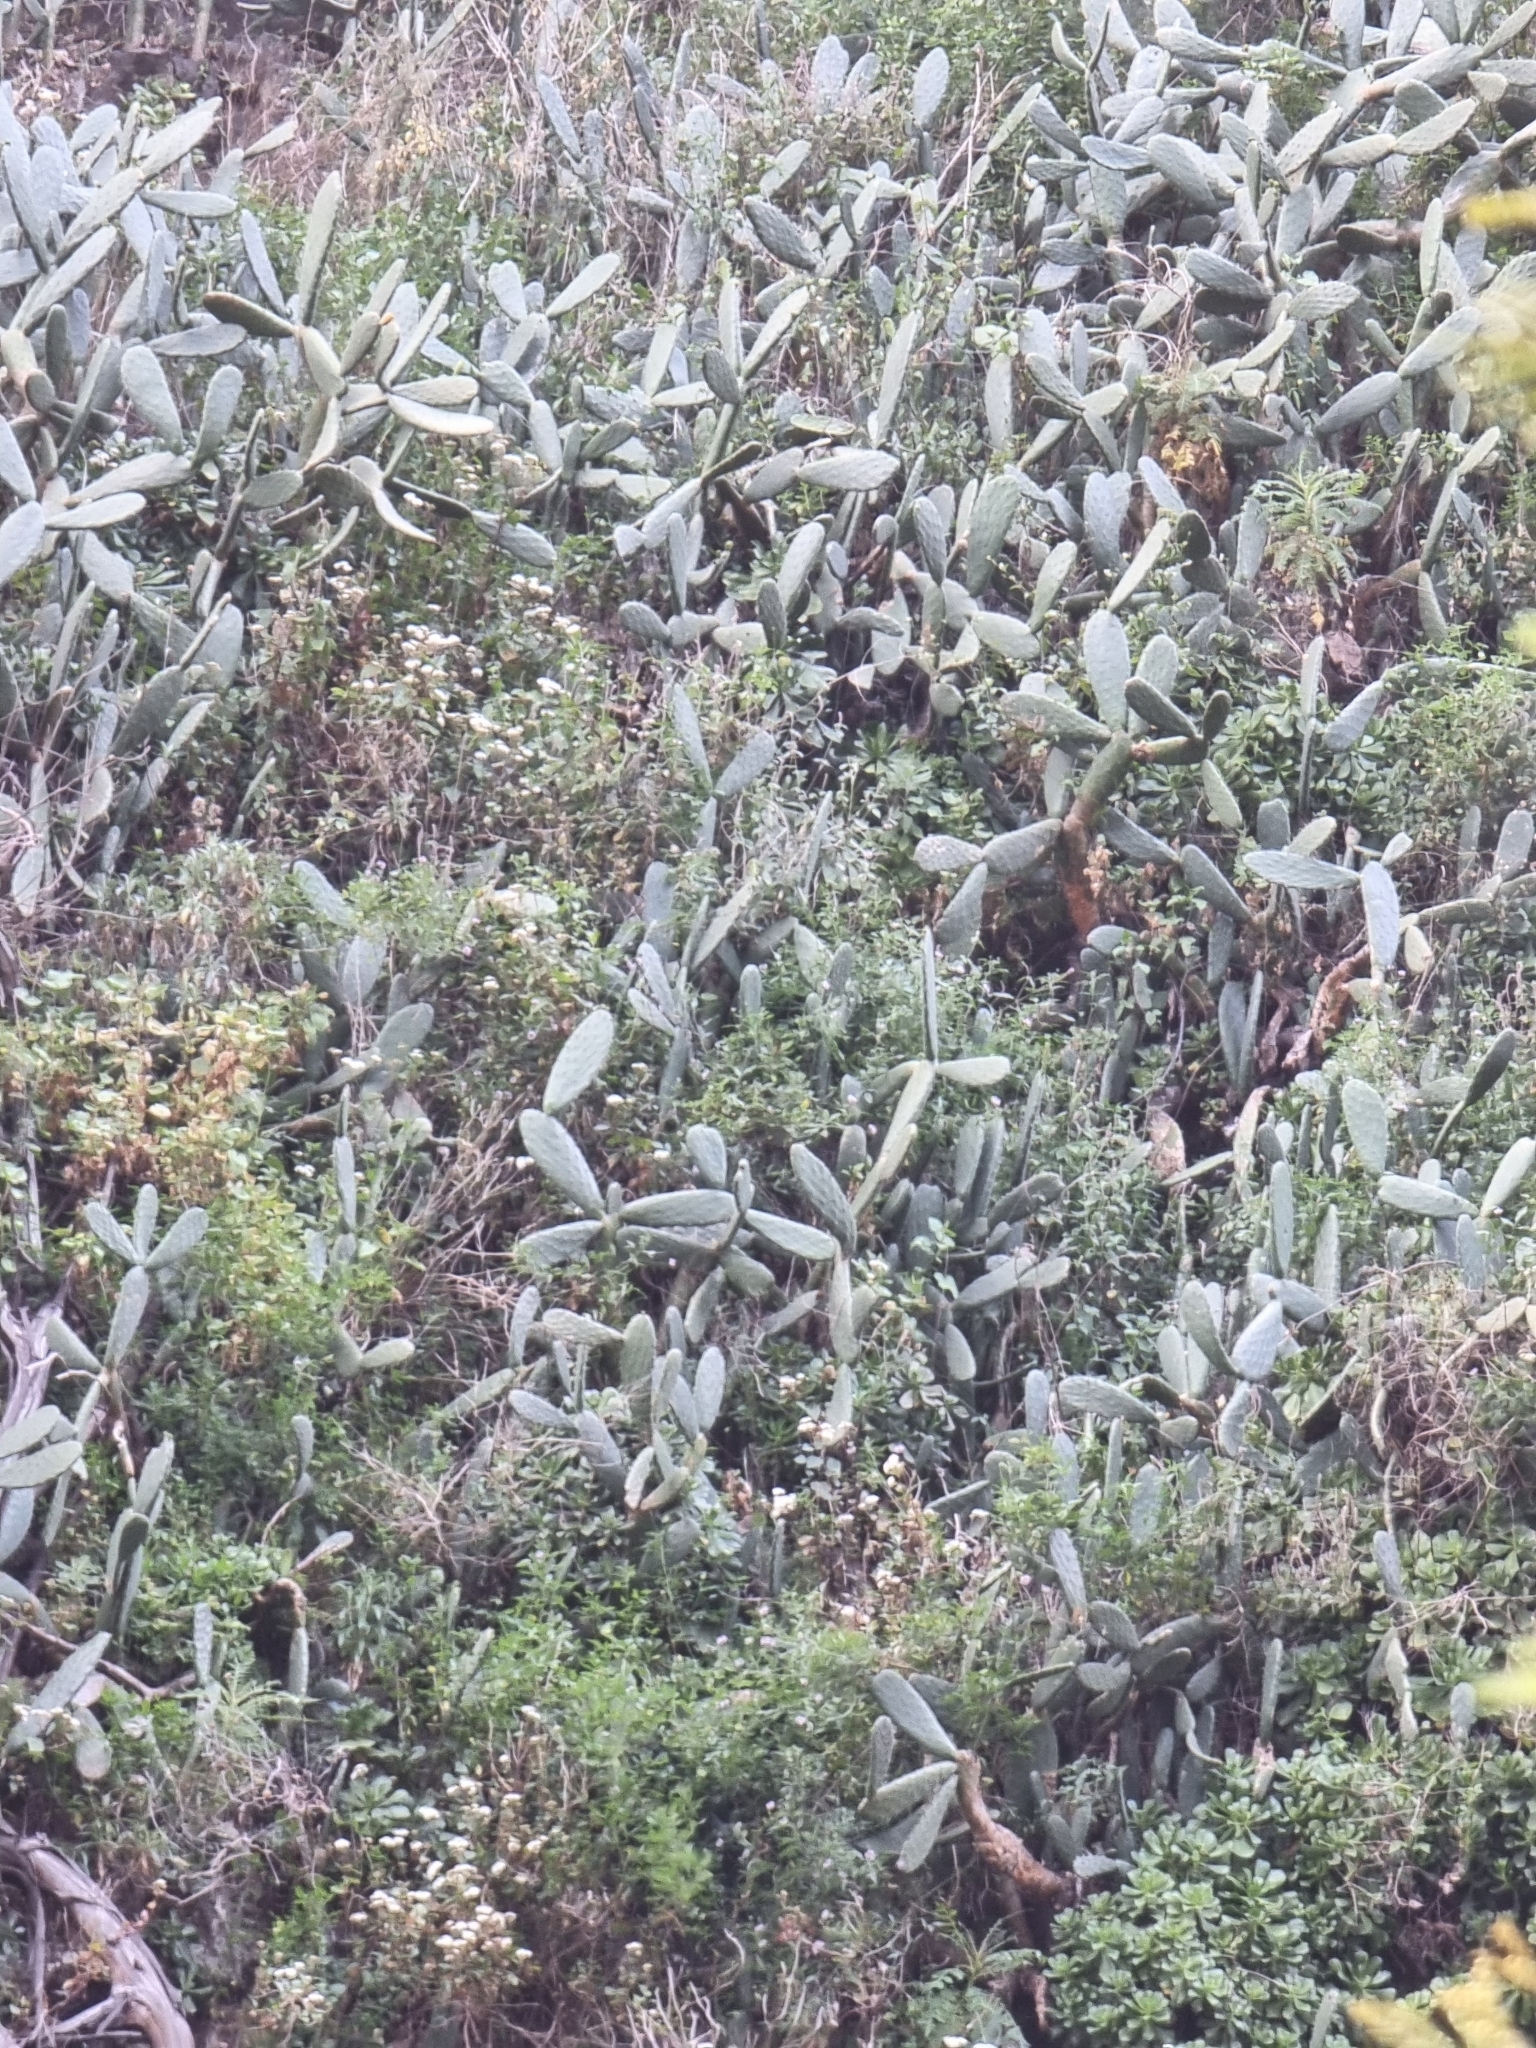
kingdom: Plantae
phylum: Tracheophyta
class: Magnoliopsida
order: Caryophyllales
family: Cactaceae
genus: Opuntia
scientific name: Opuntia ficus-indica
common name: Barbary fig
